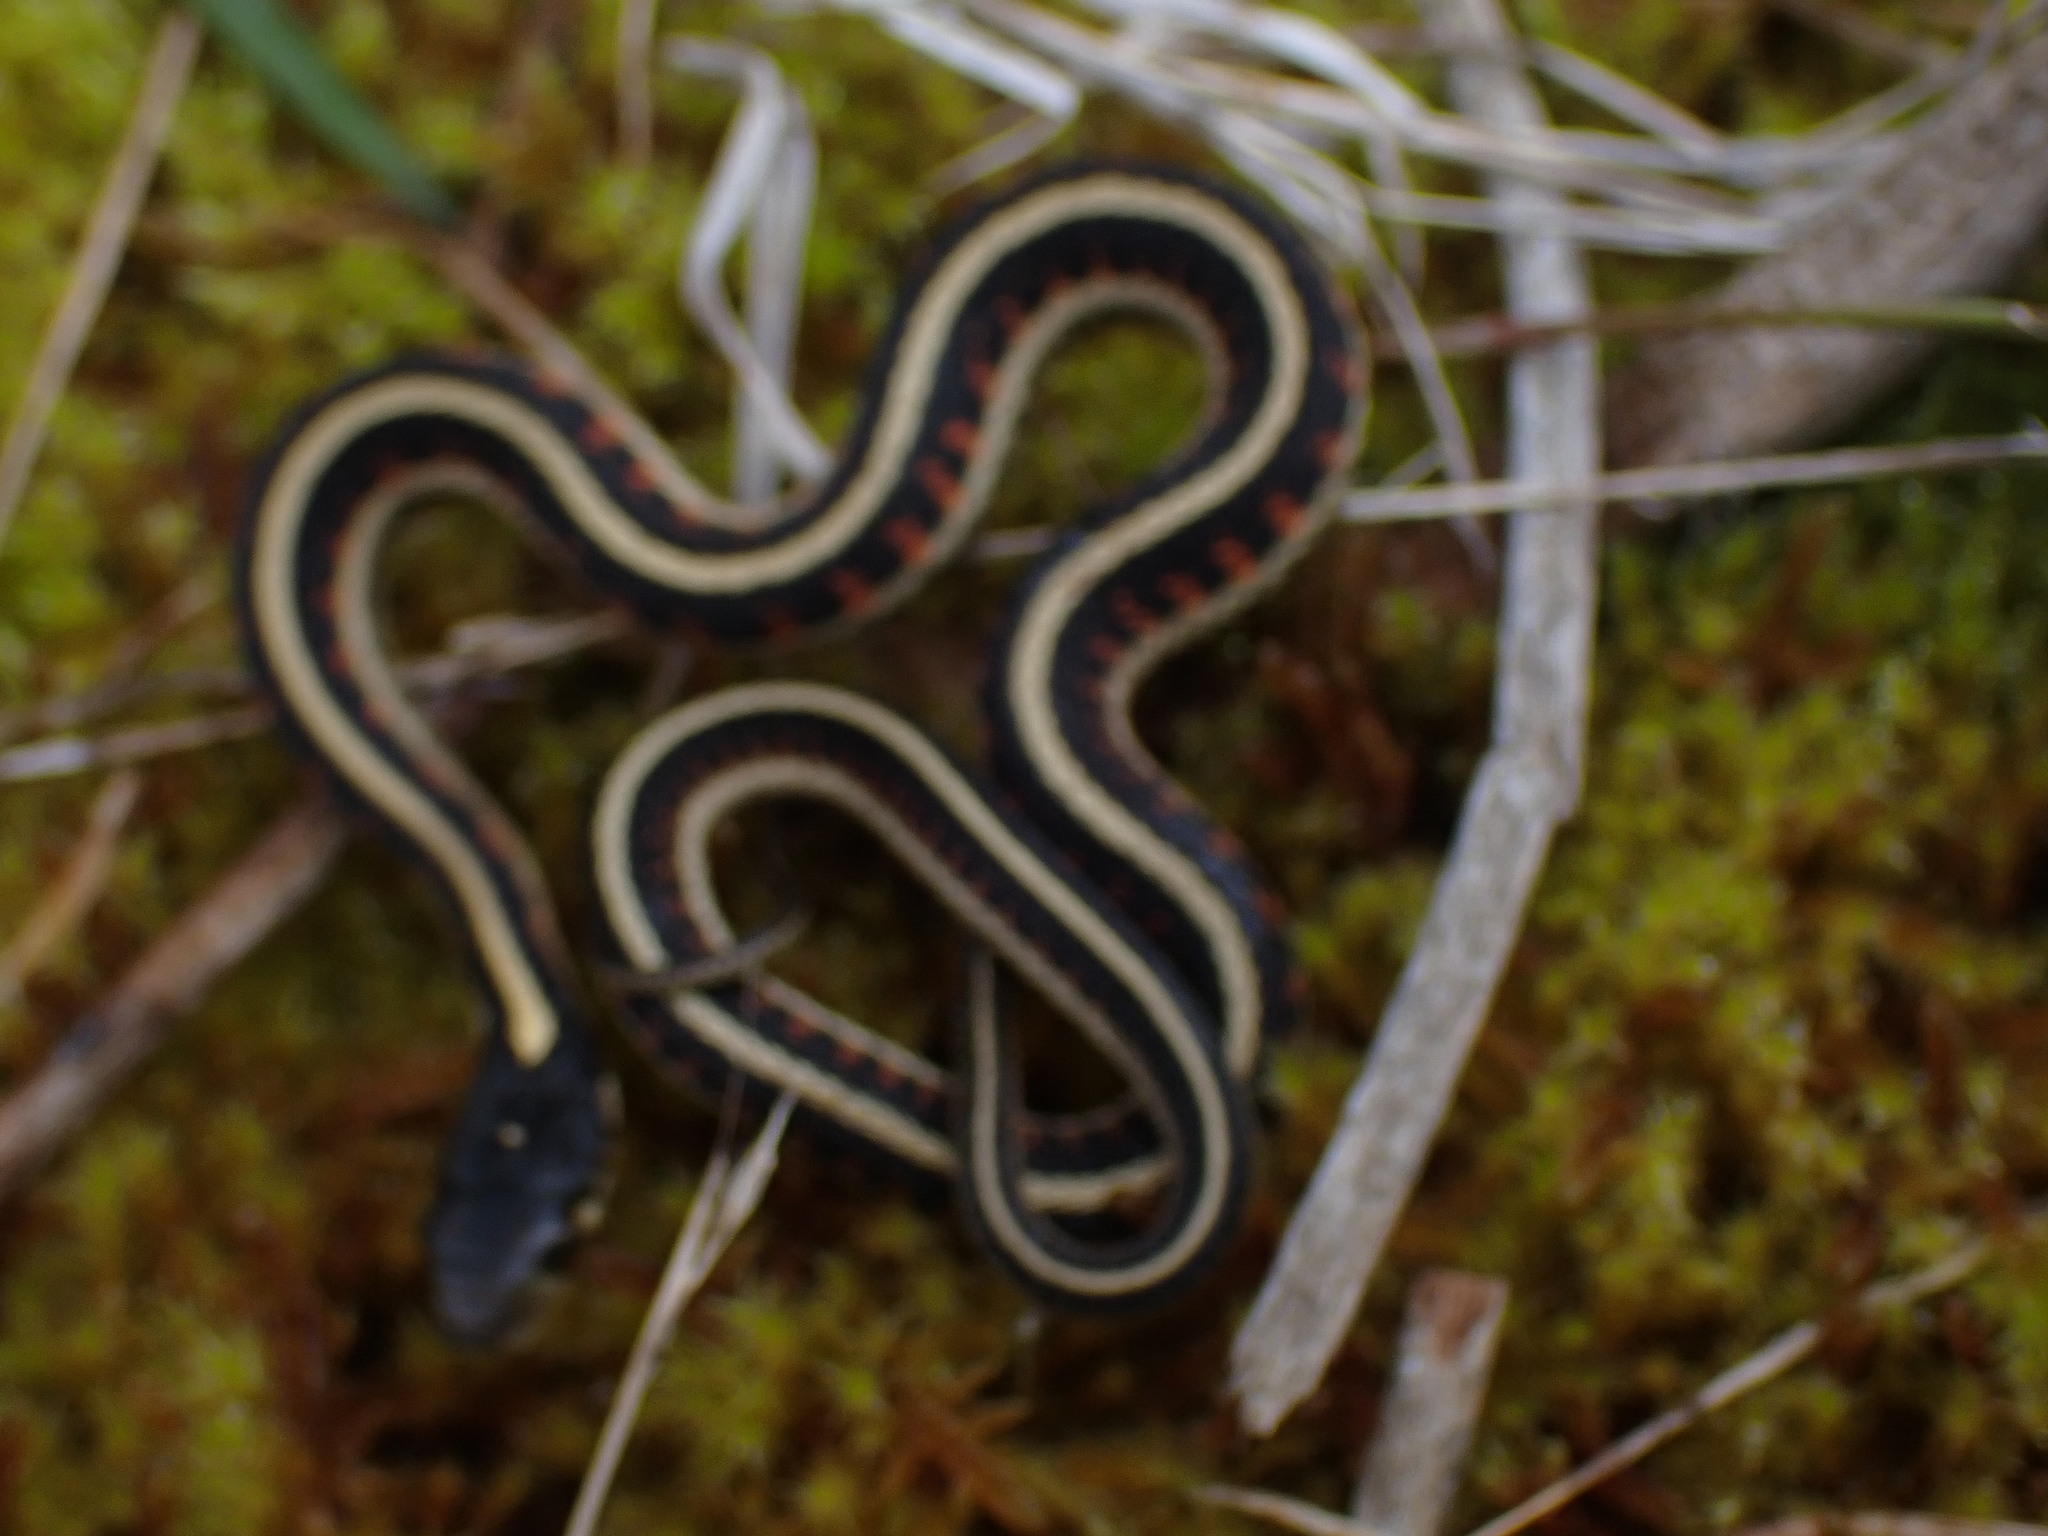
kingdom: Animalia
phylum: Chordata
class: Squamata
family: Colubridae
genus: Thamnophis
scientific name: Thamnophis sirtalis
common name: Common garter snake
